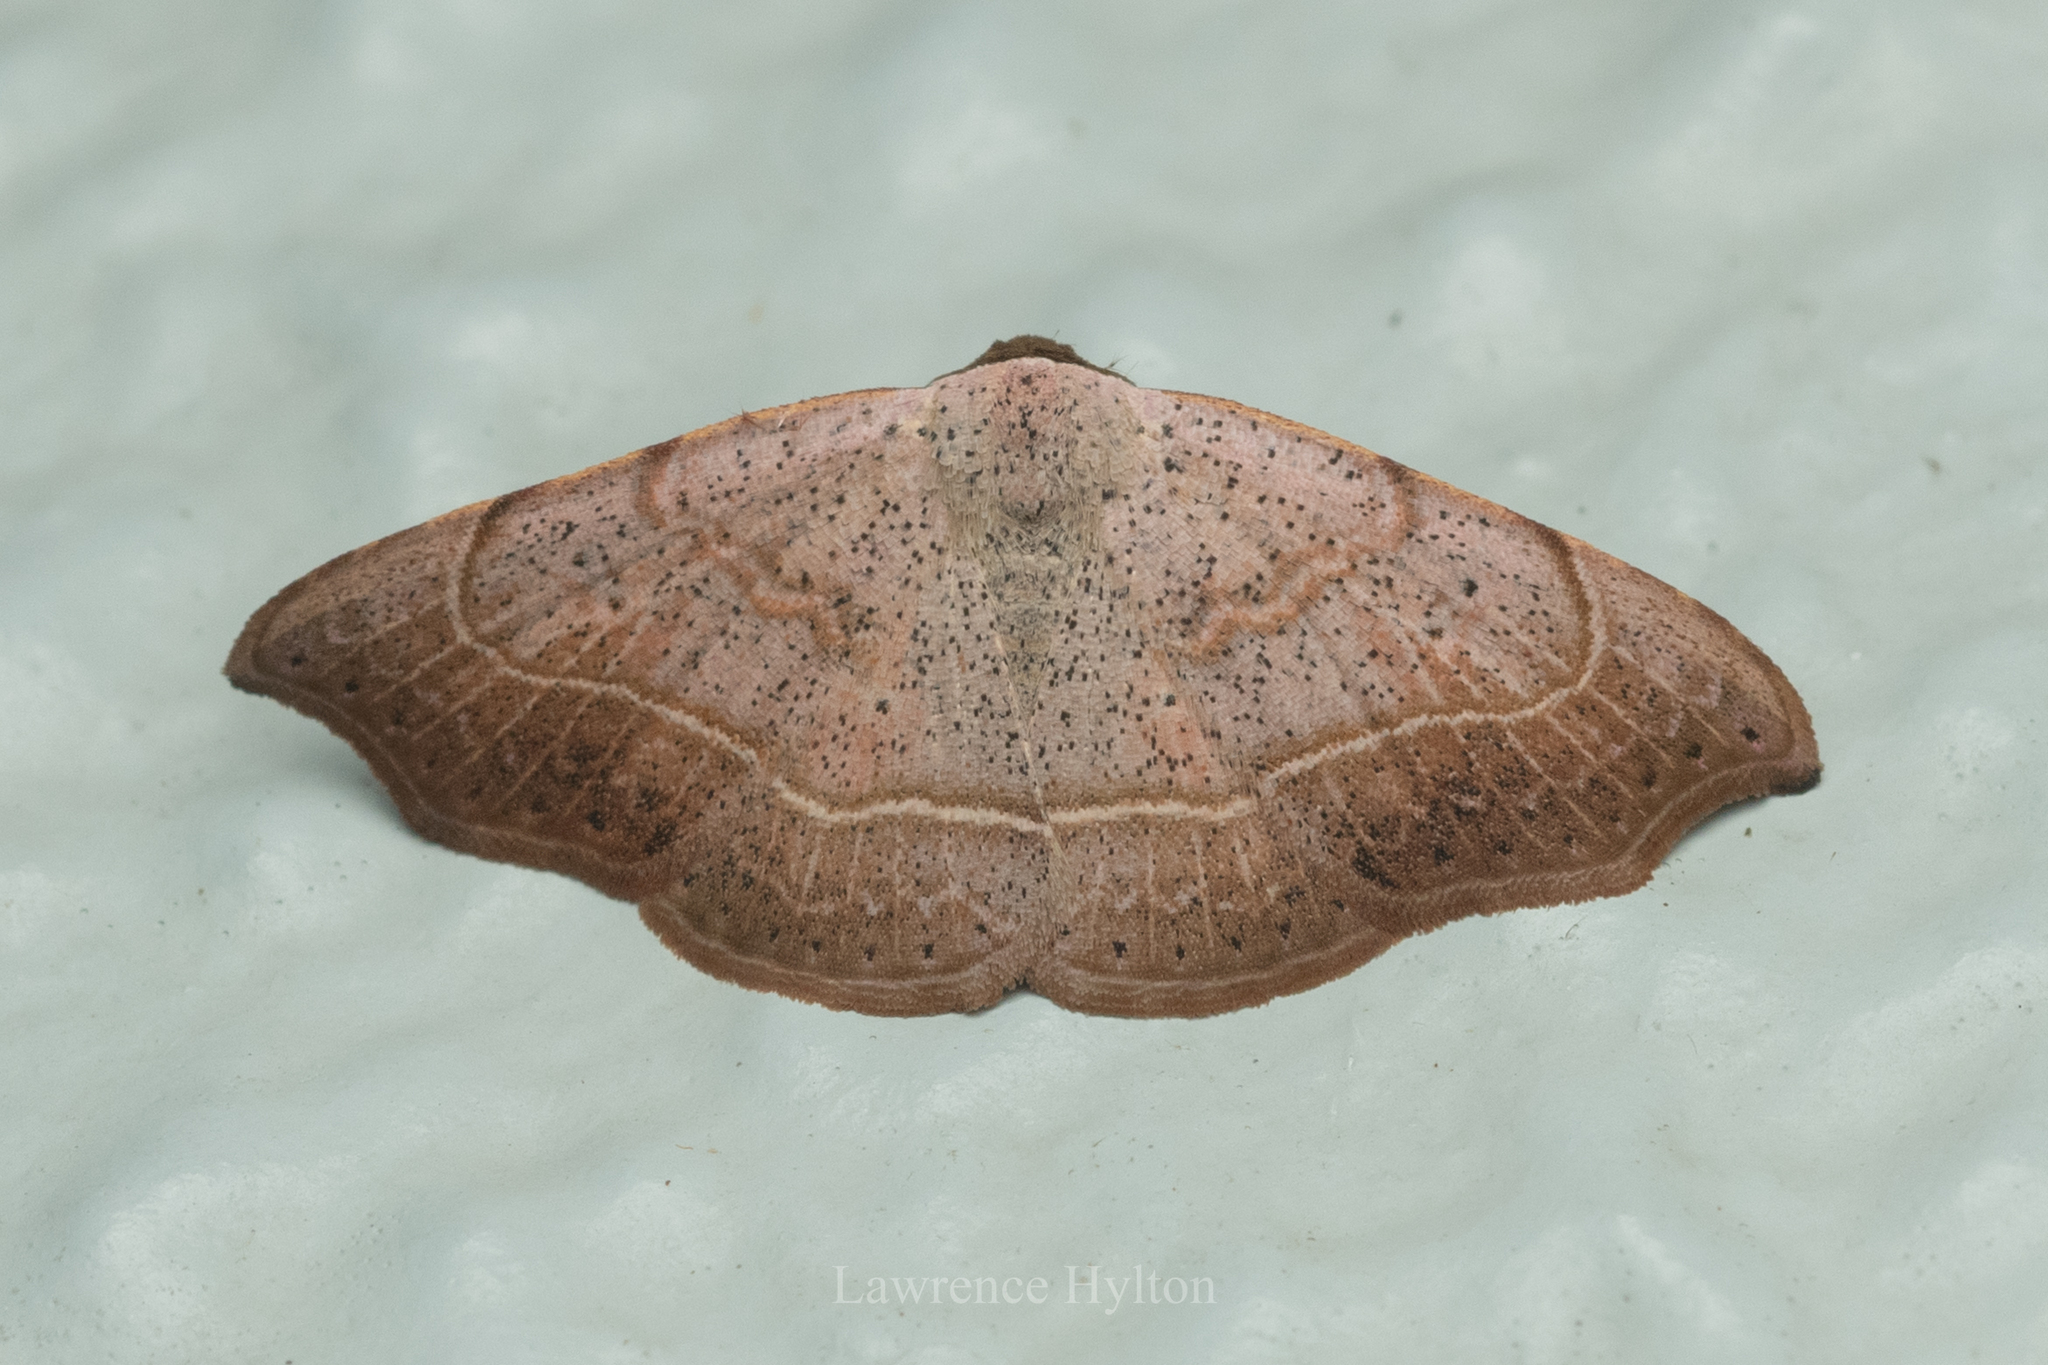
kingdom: Animalia
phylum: Arthropoda
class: Insecta
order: Lepidoptera
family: Erebidae
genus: Laspeyria
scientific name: Laspeyria ruficeps
